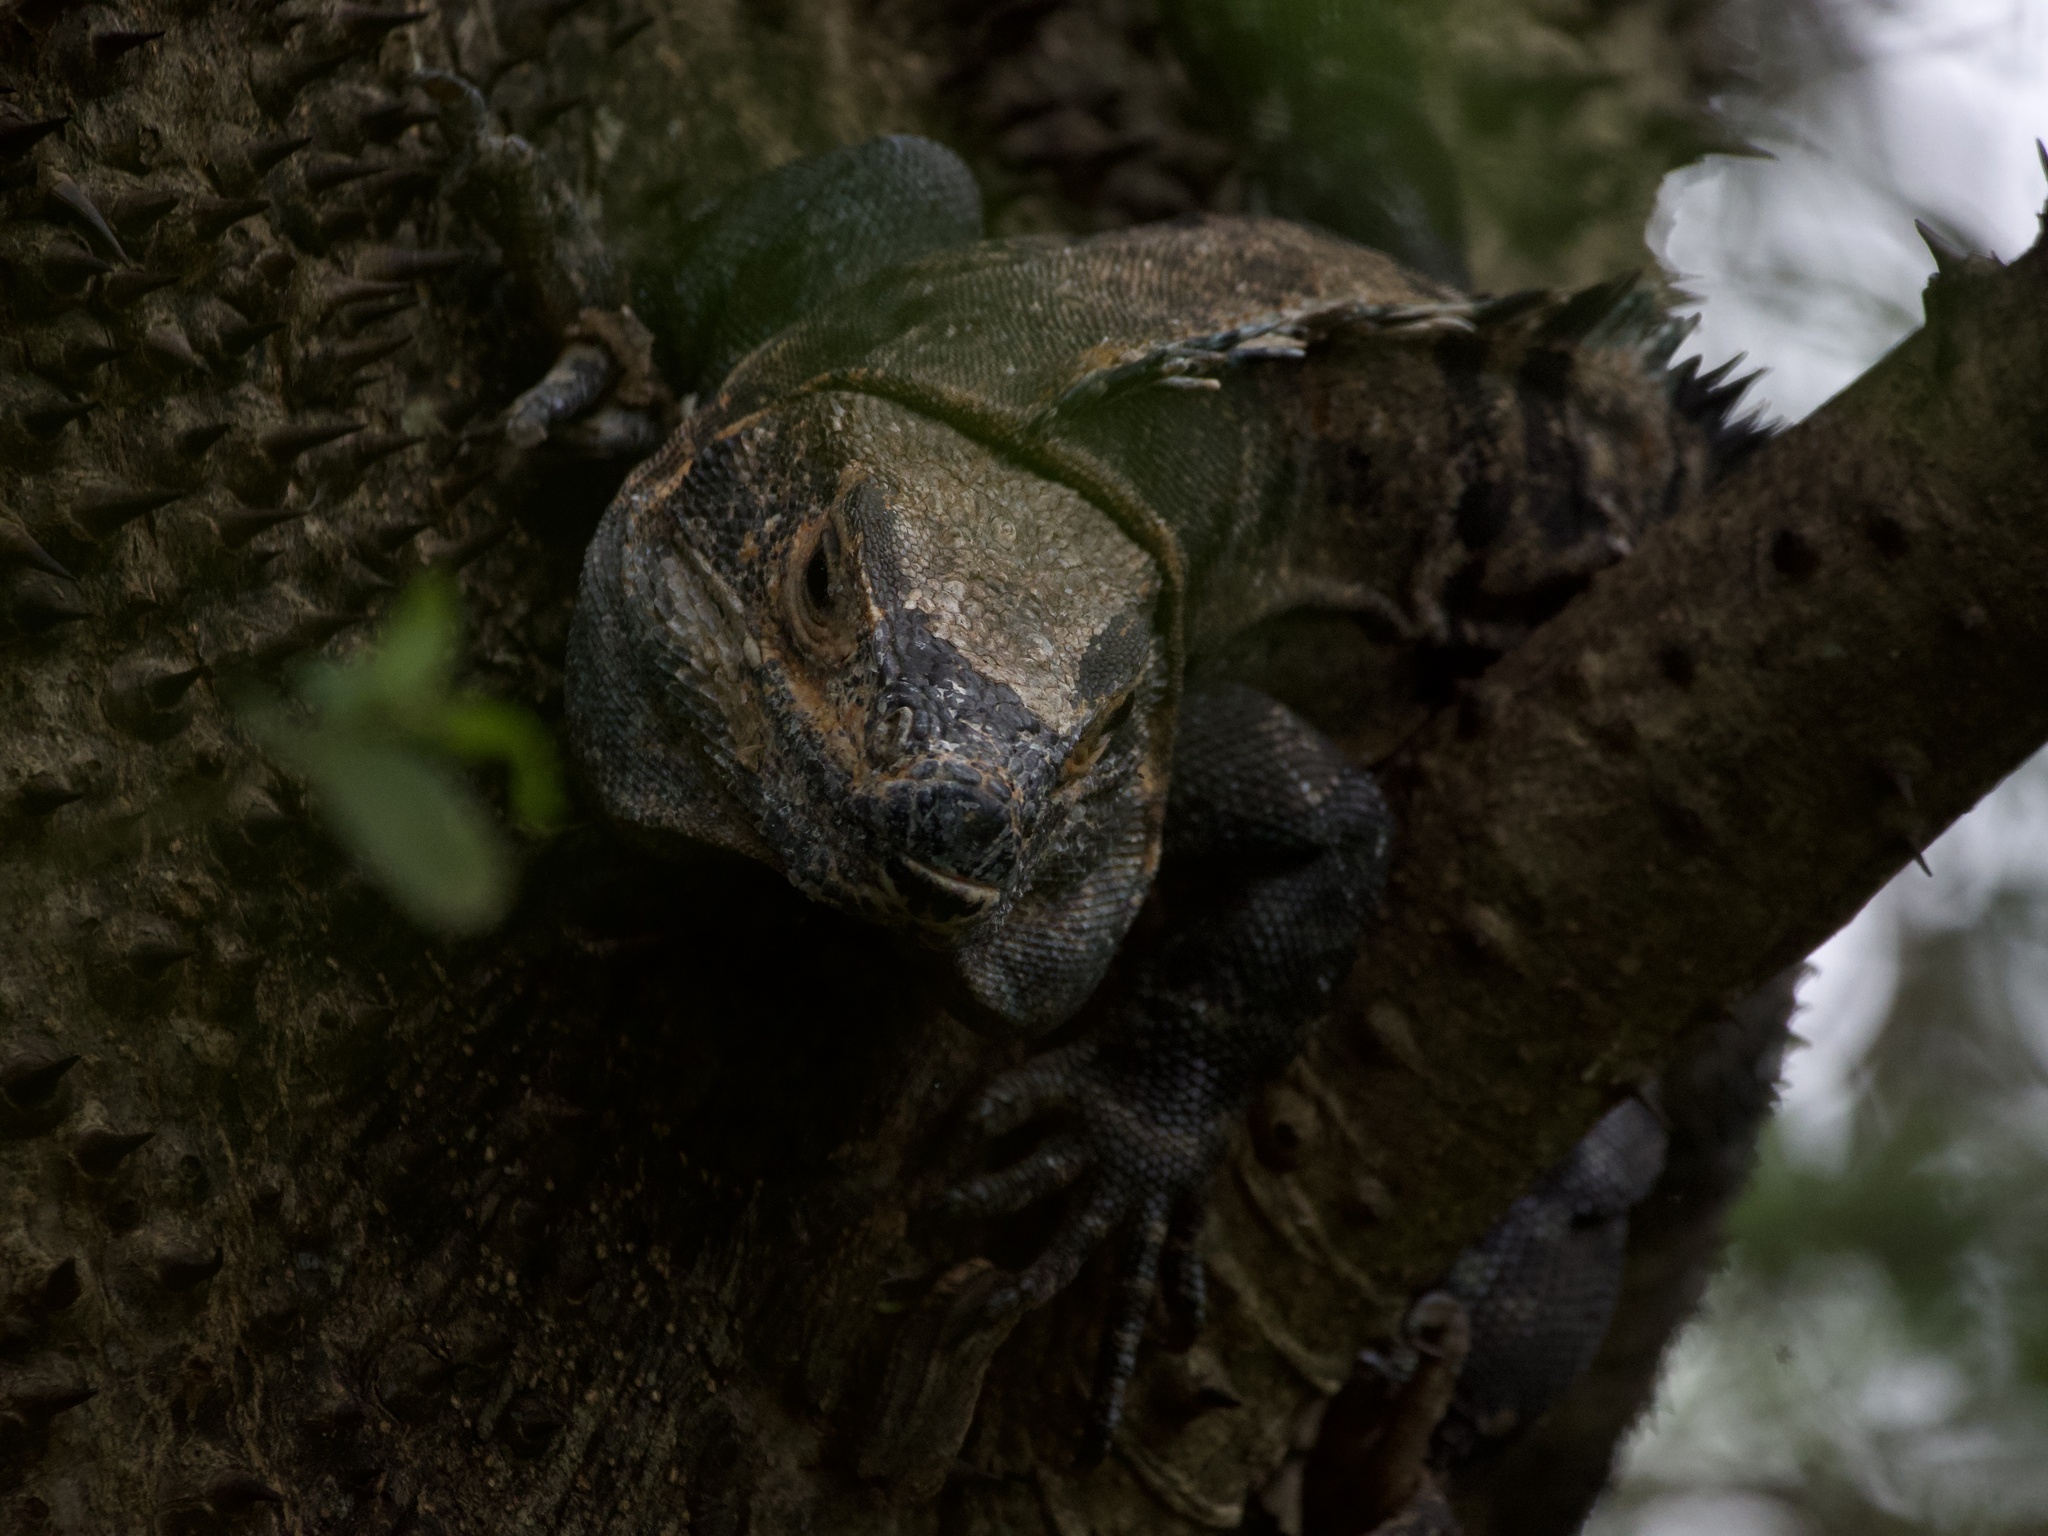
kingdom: Animalia
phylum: Chordata
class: Squamata
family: Iguanidae
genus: Ctenosaura
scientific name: Ctenosaura similis
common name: Black spiny-tailed iguana
